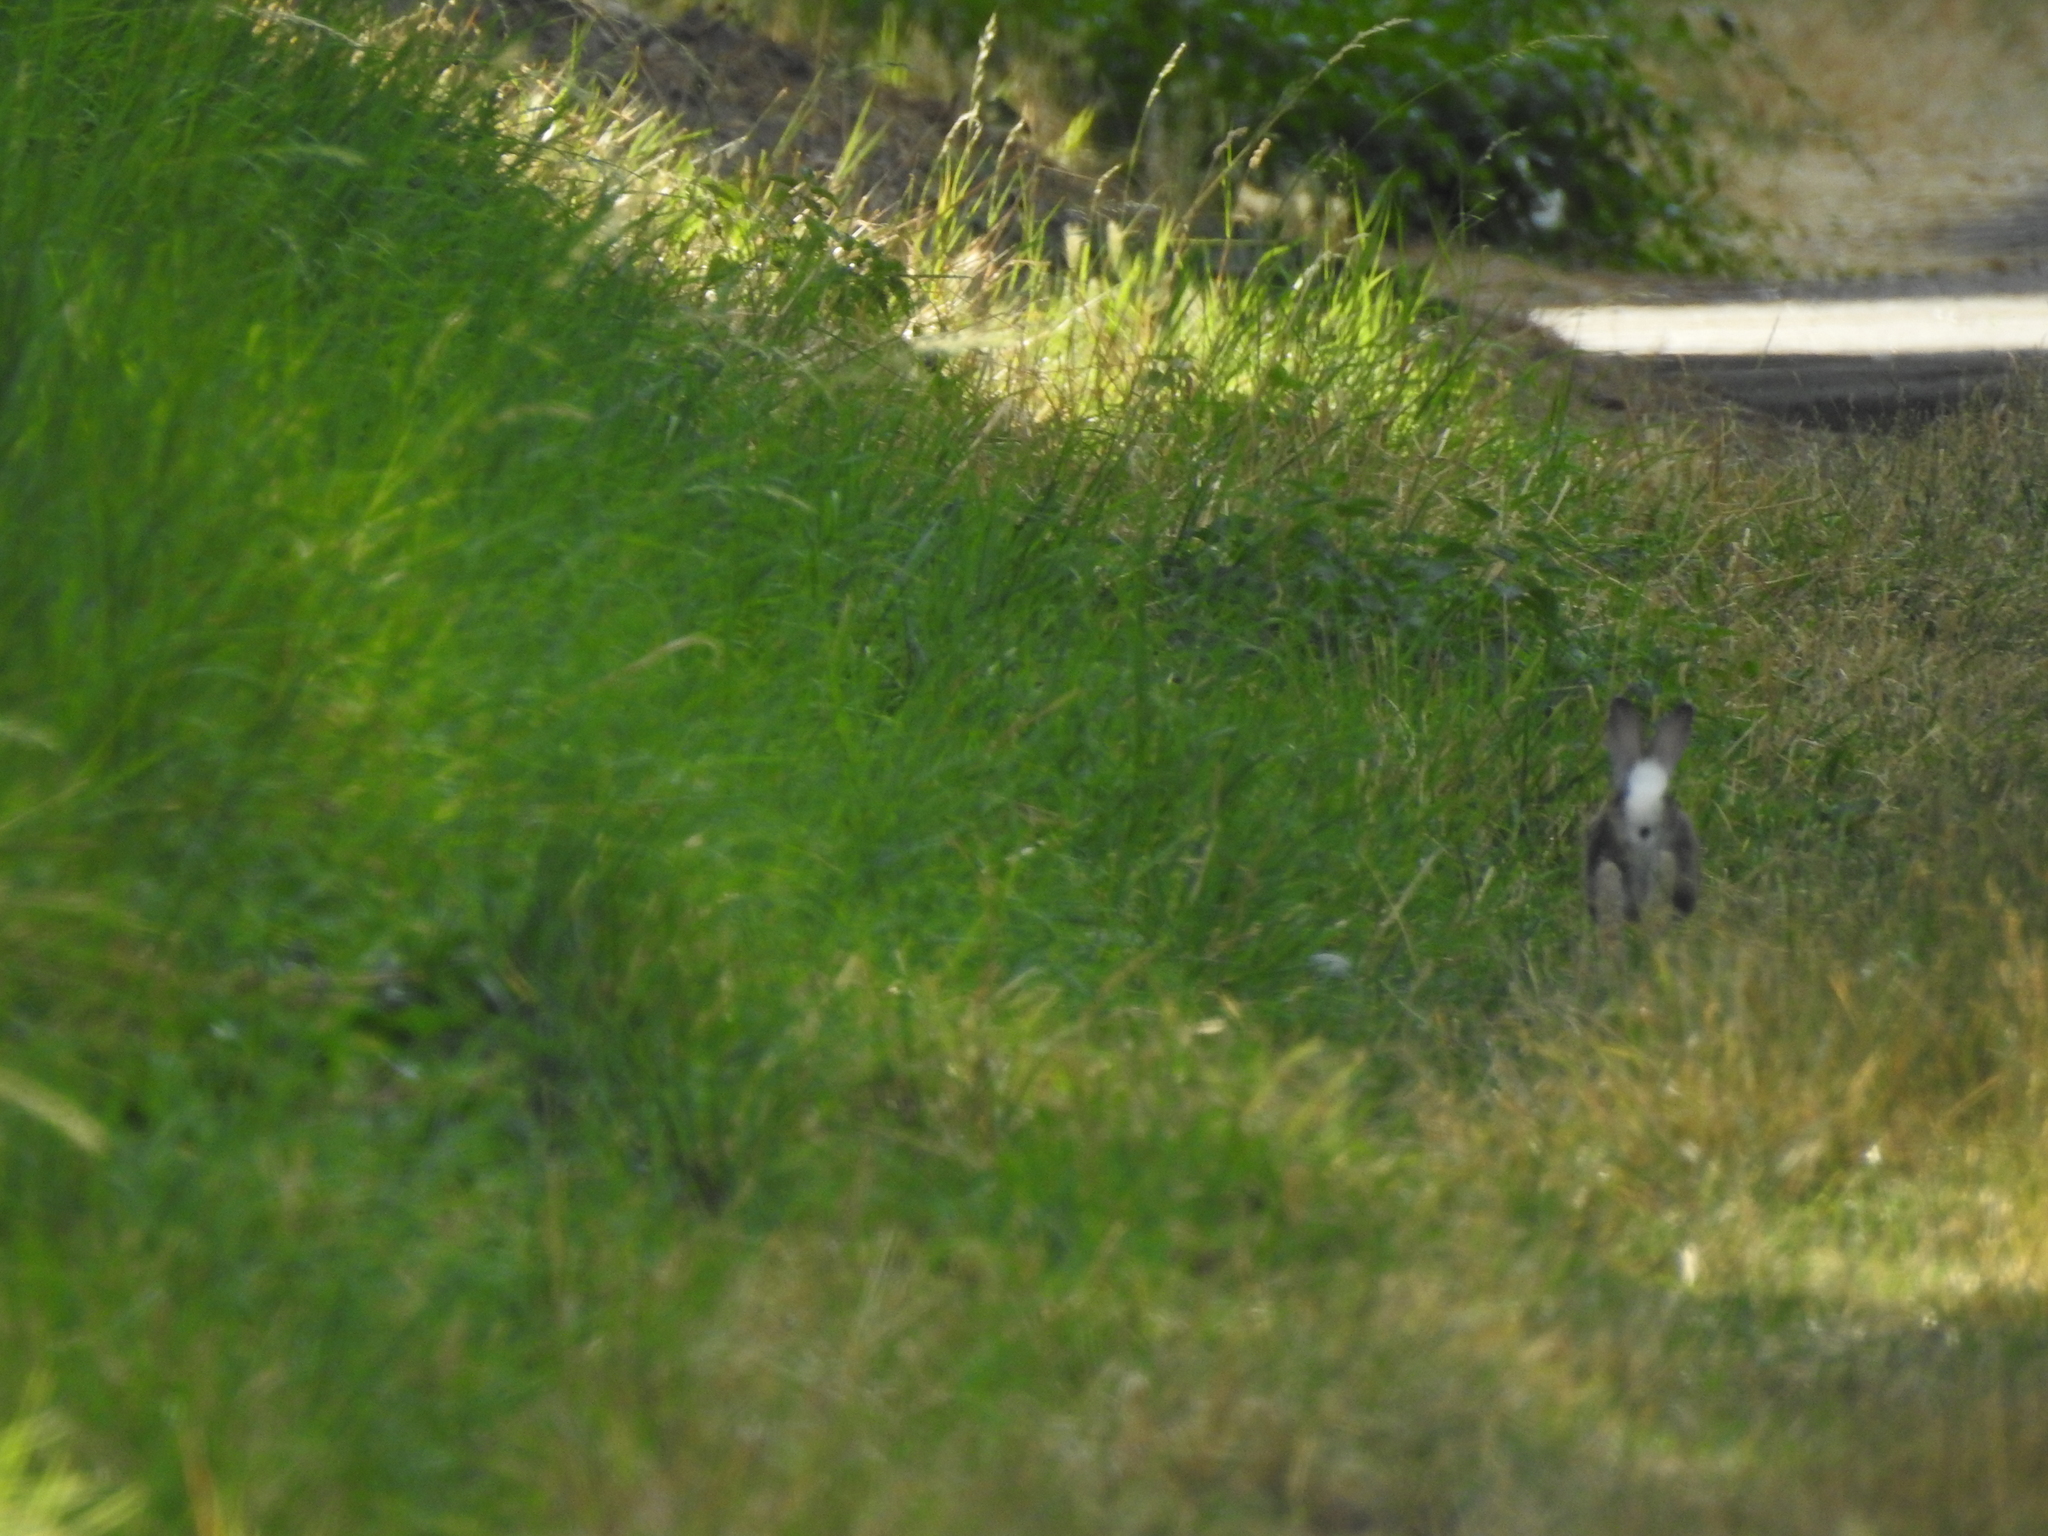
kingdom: Animalia
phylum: Chordata
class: Mammalia
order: Lagomorpha
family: Leporidae
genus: Oryctolagus
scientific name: Oryctolagus cuniculus
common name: European rabbit
